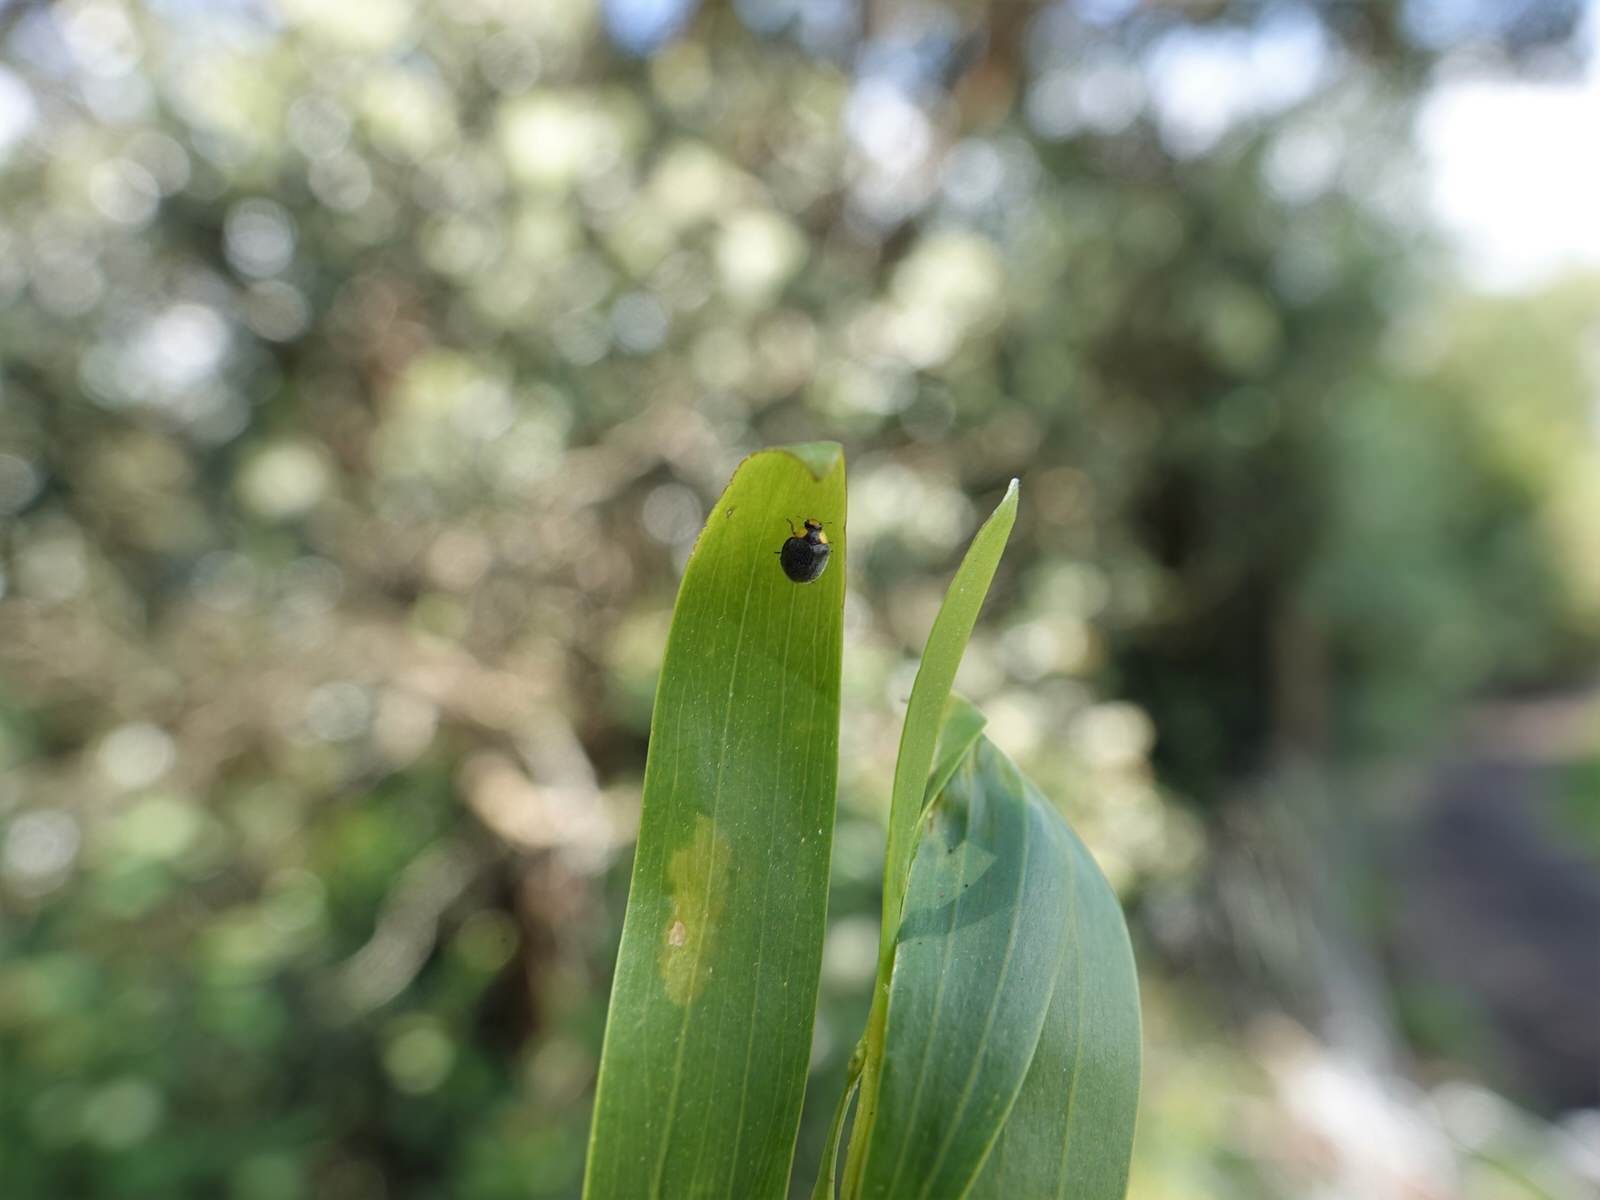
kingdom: Animalia
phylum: Arthropoda
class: Insecta
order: Coleoptera
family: Coccinellidae
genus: Scymnodes
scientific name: Scymnodes lividigaster
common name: Yellowshouldered lady beetle
